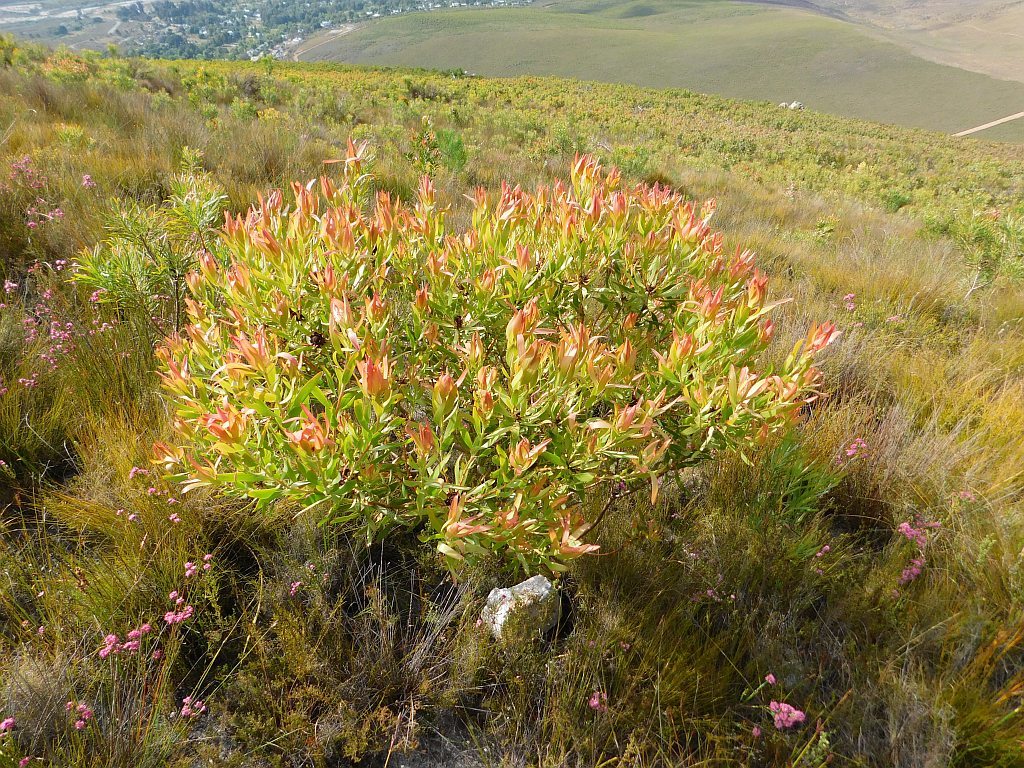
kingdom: Plantae
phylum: Tracheophyta
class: Magnoliopsida
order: Proteales
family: Proteaceae
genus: Leucadendron
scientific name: Leucadendron microcephalum
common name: Oilbract conebush
